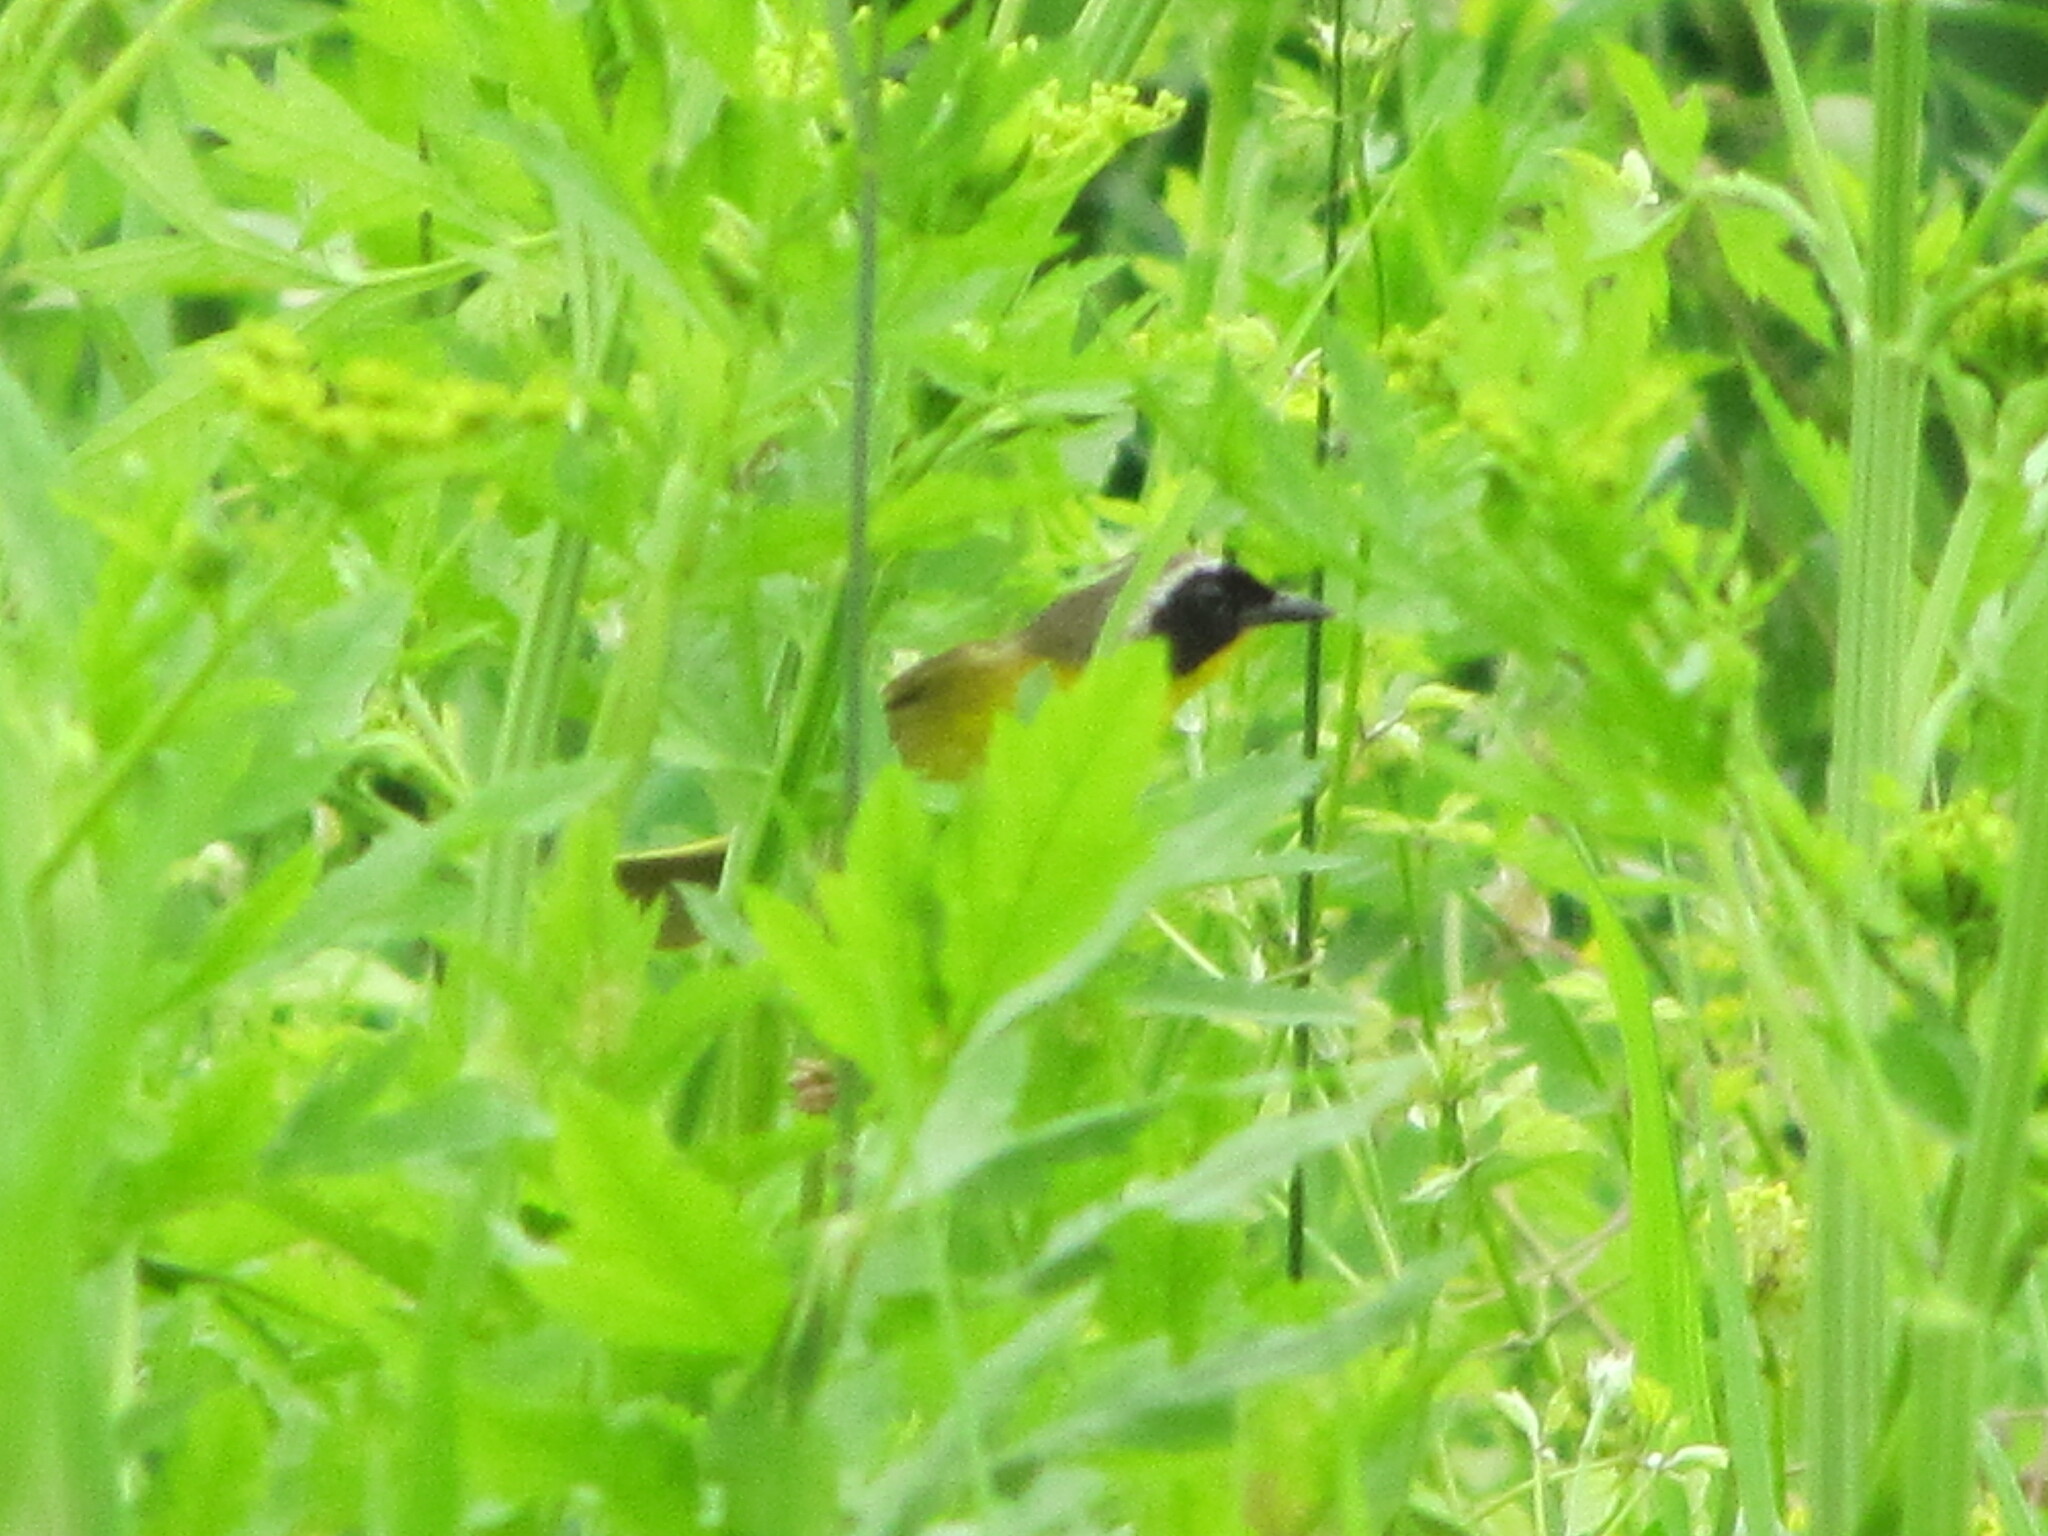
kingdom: Animalia
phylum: Chordata
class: Aves
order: Passeriformes
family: Parulidae
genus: Geothlypis
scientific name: Geothlypis trichas
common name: Common yellowthroat
